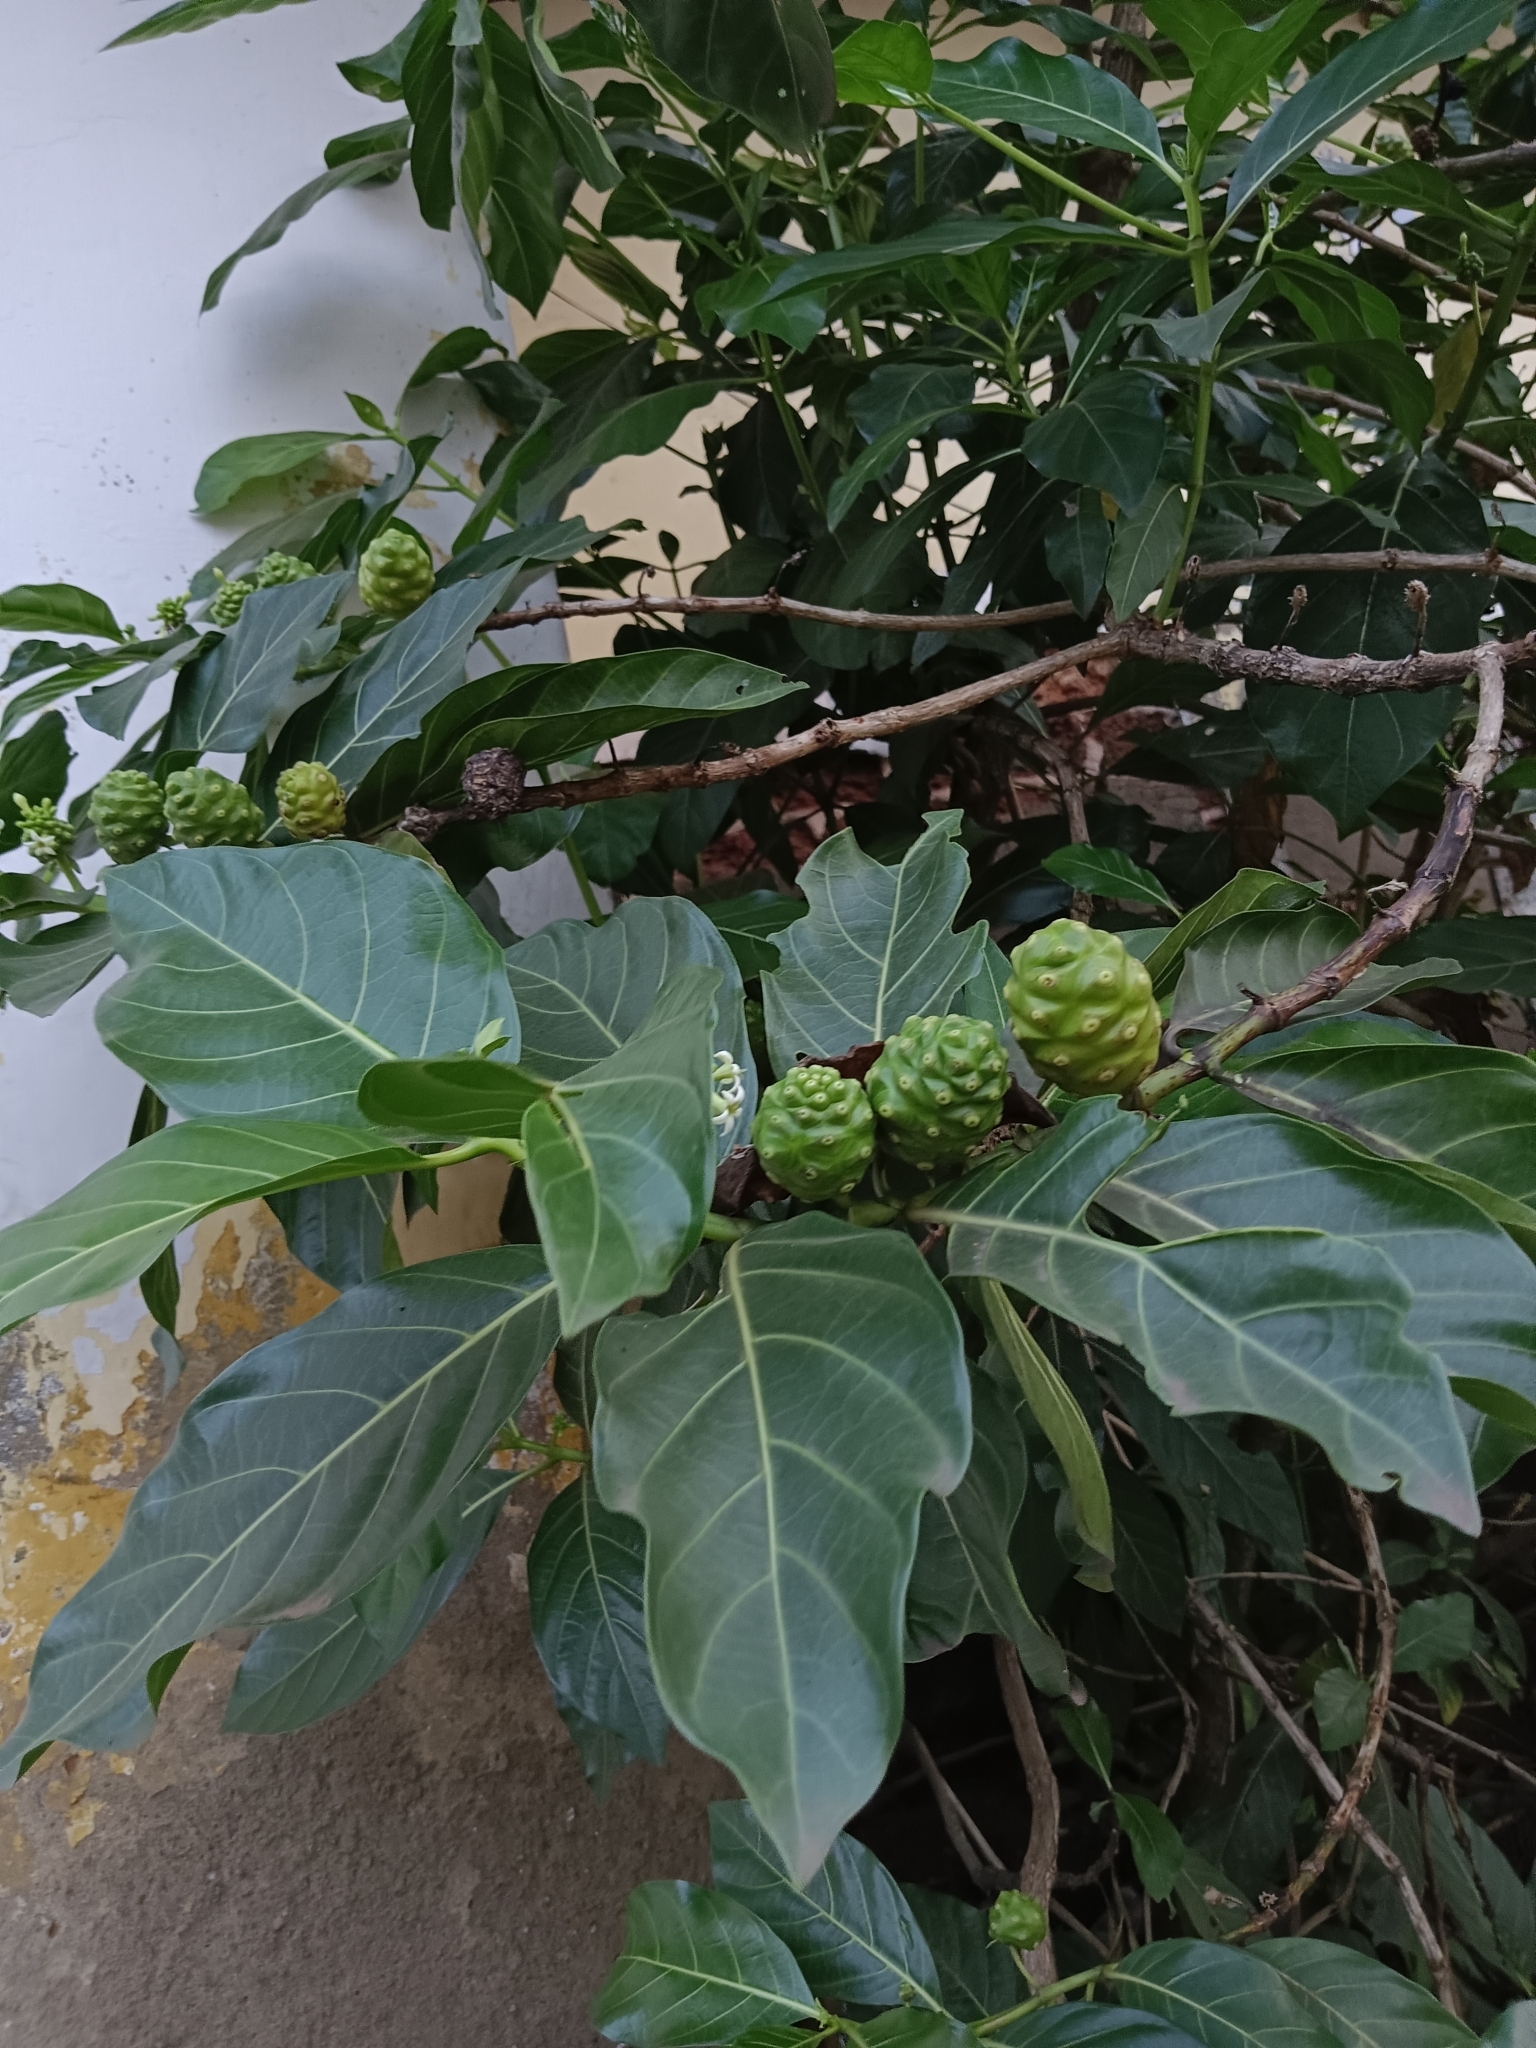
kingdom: Plantae
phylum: Tracheophyta
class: Magnoliopsida
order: Gentianales
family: Rubiaceae
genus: Morinda
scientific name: Morinda citrifolia
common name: Indian-mulberry
